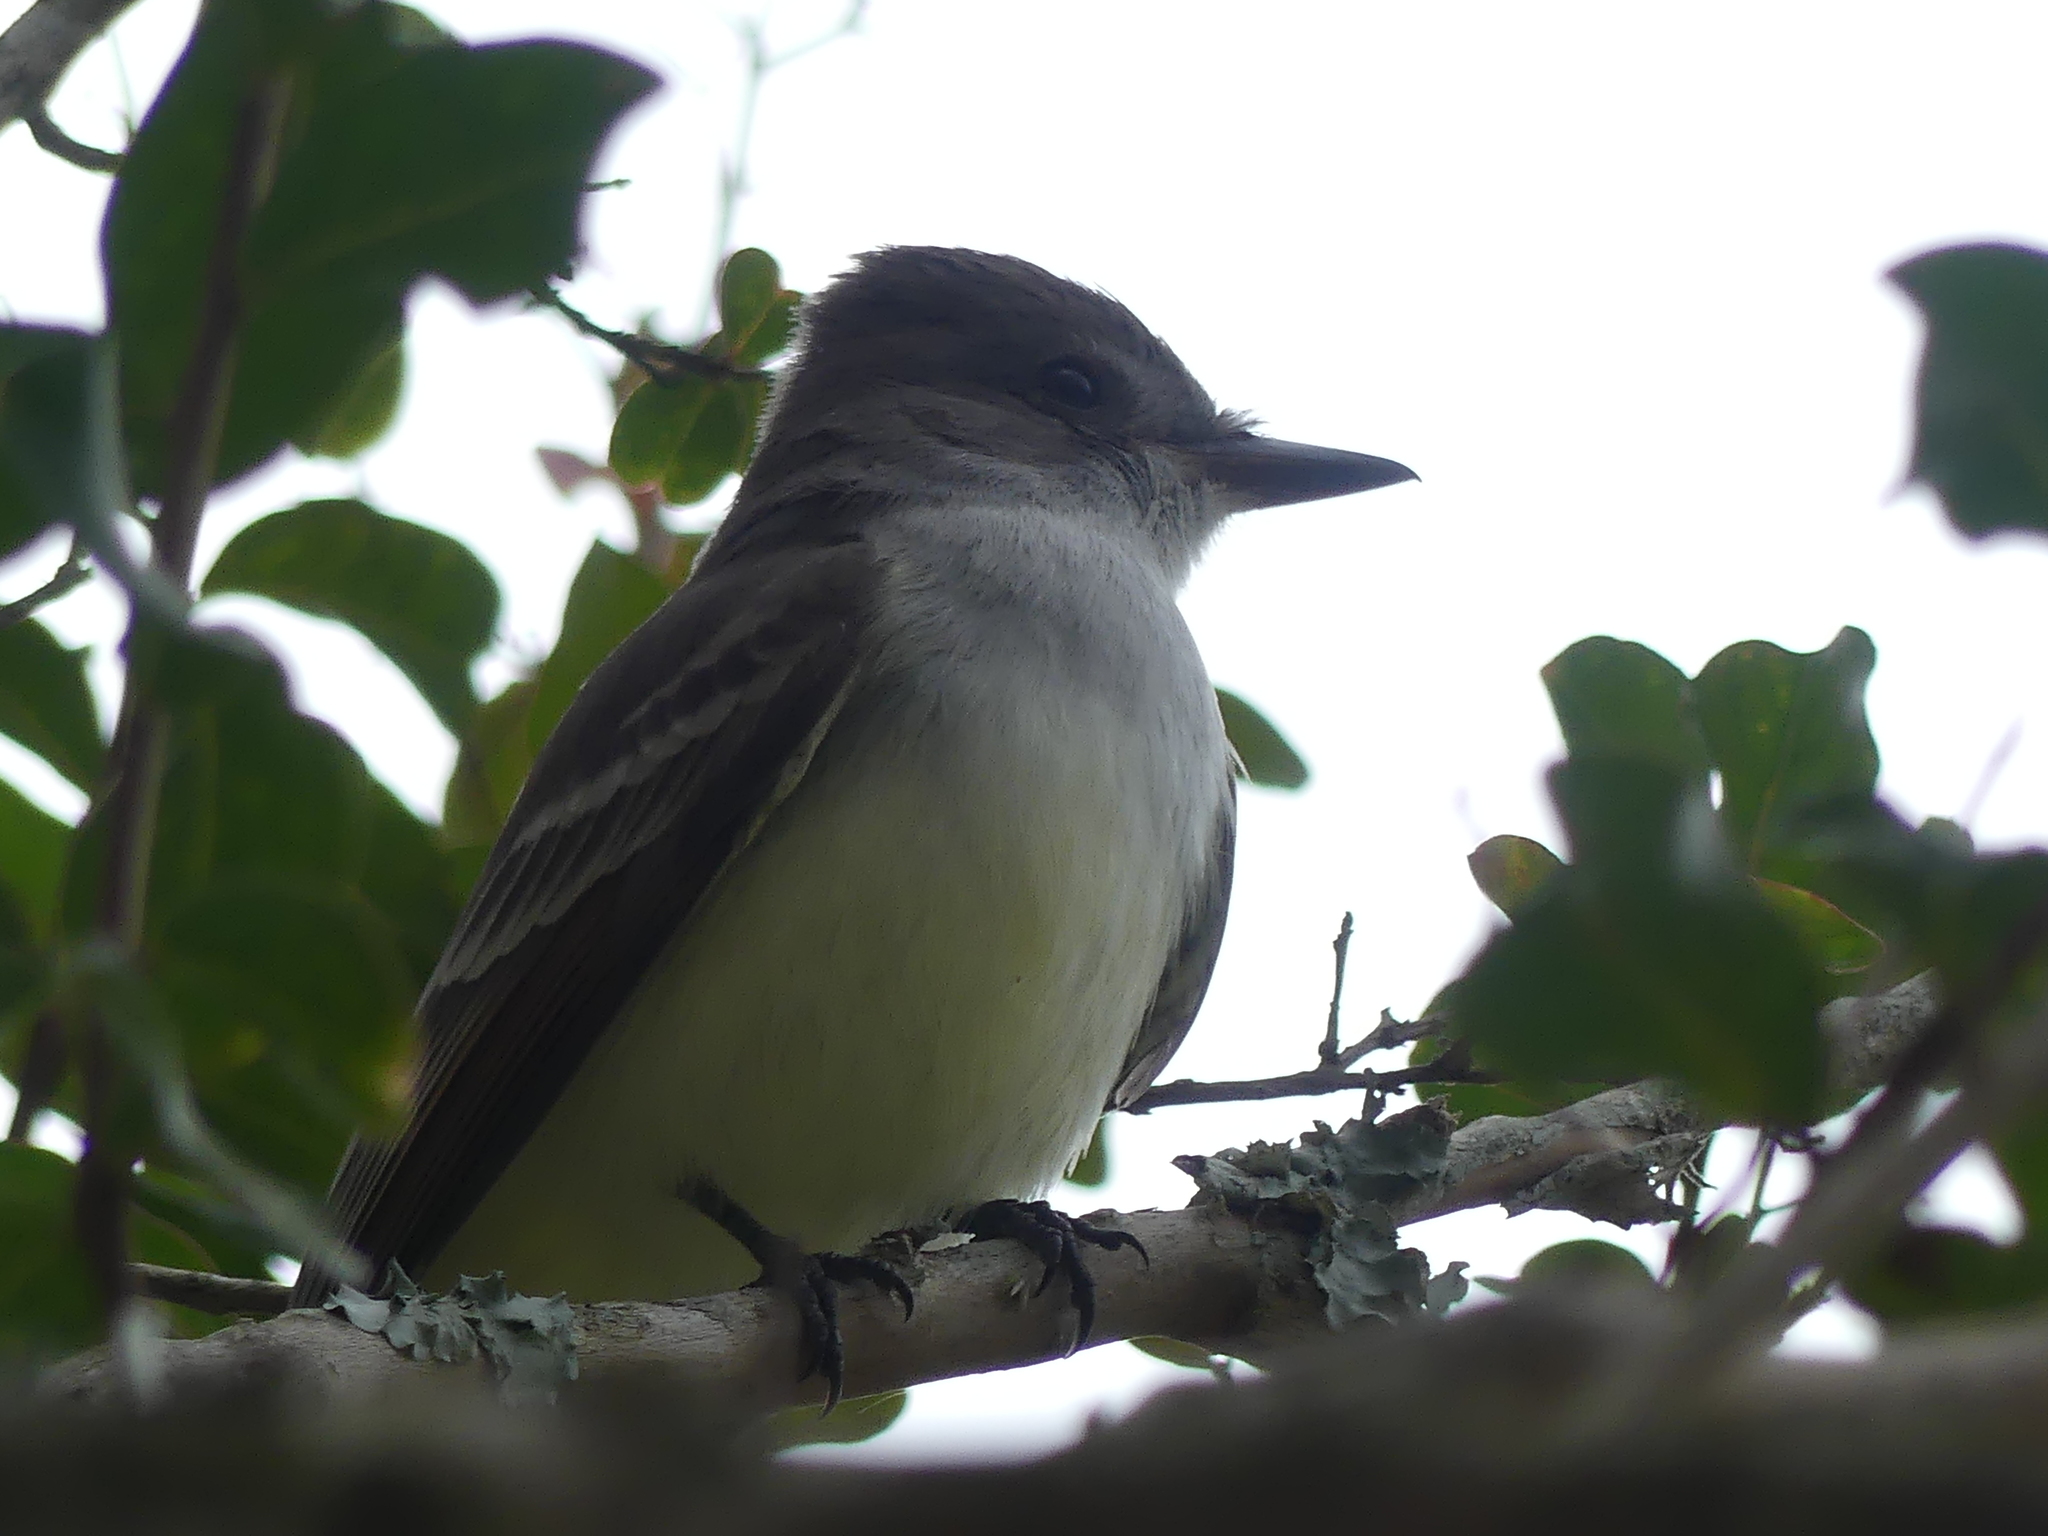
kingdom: Animalia
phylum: Chordata
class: Aves
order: Passeriformes
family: Tyrannidae
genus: Myiarchus
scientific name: Myiarchus cinerascens
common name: Ash-throated flycatcher
